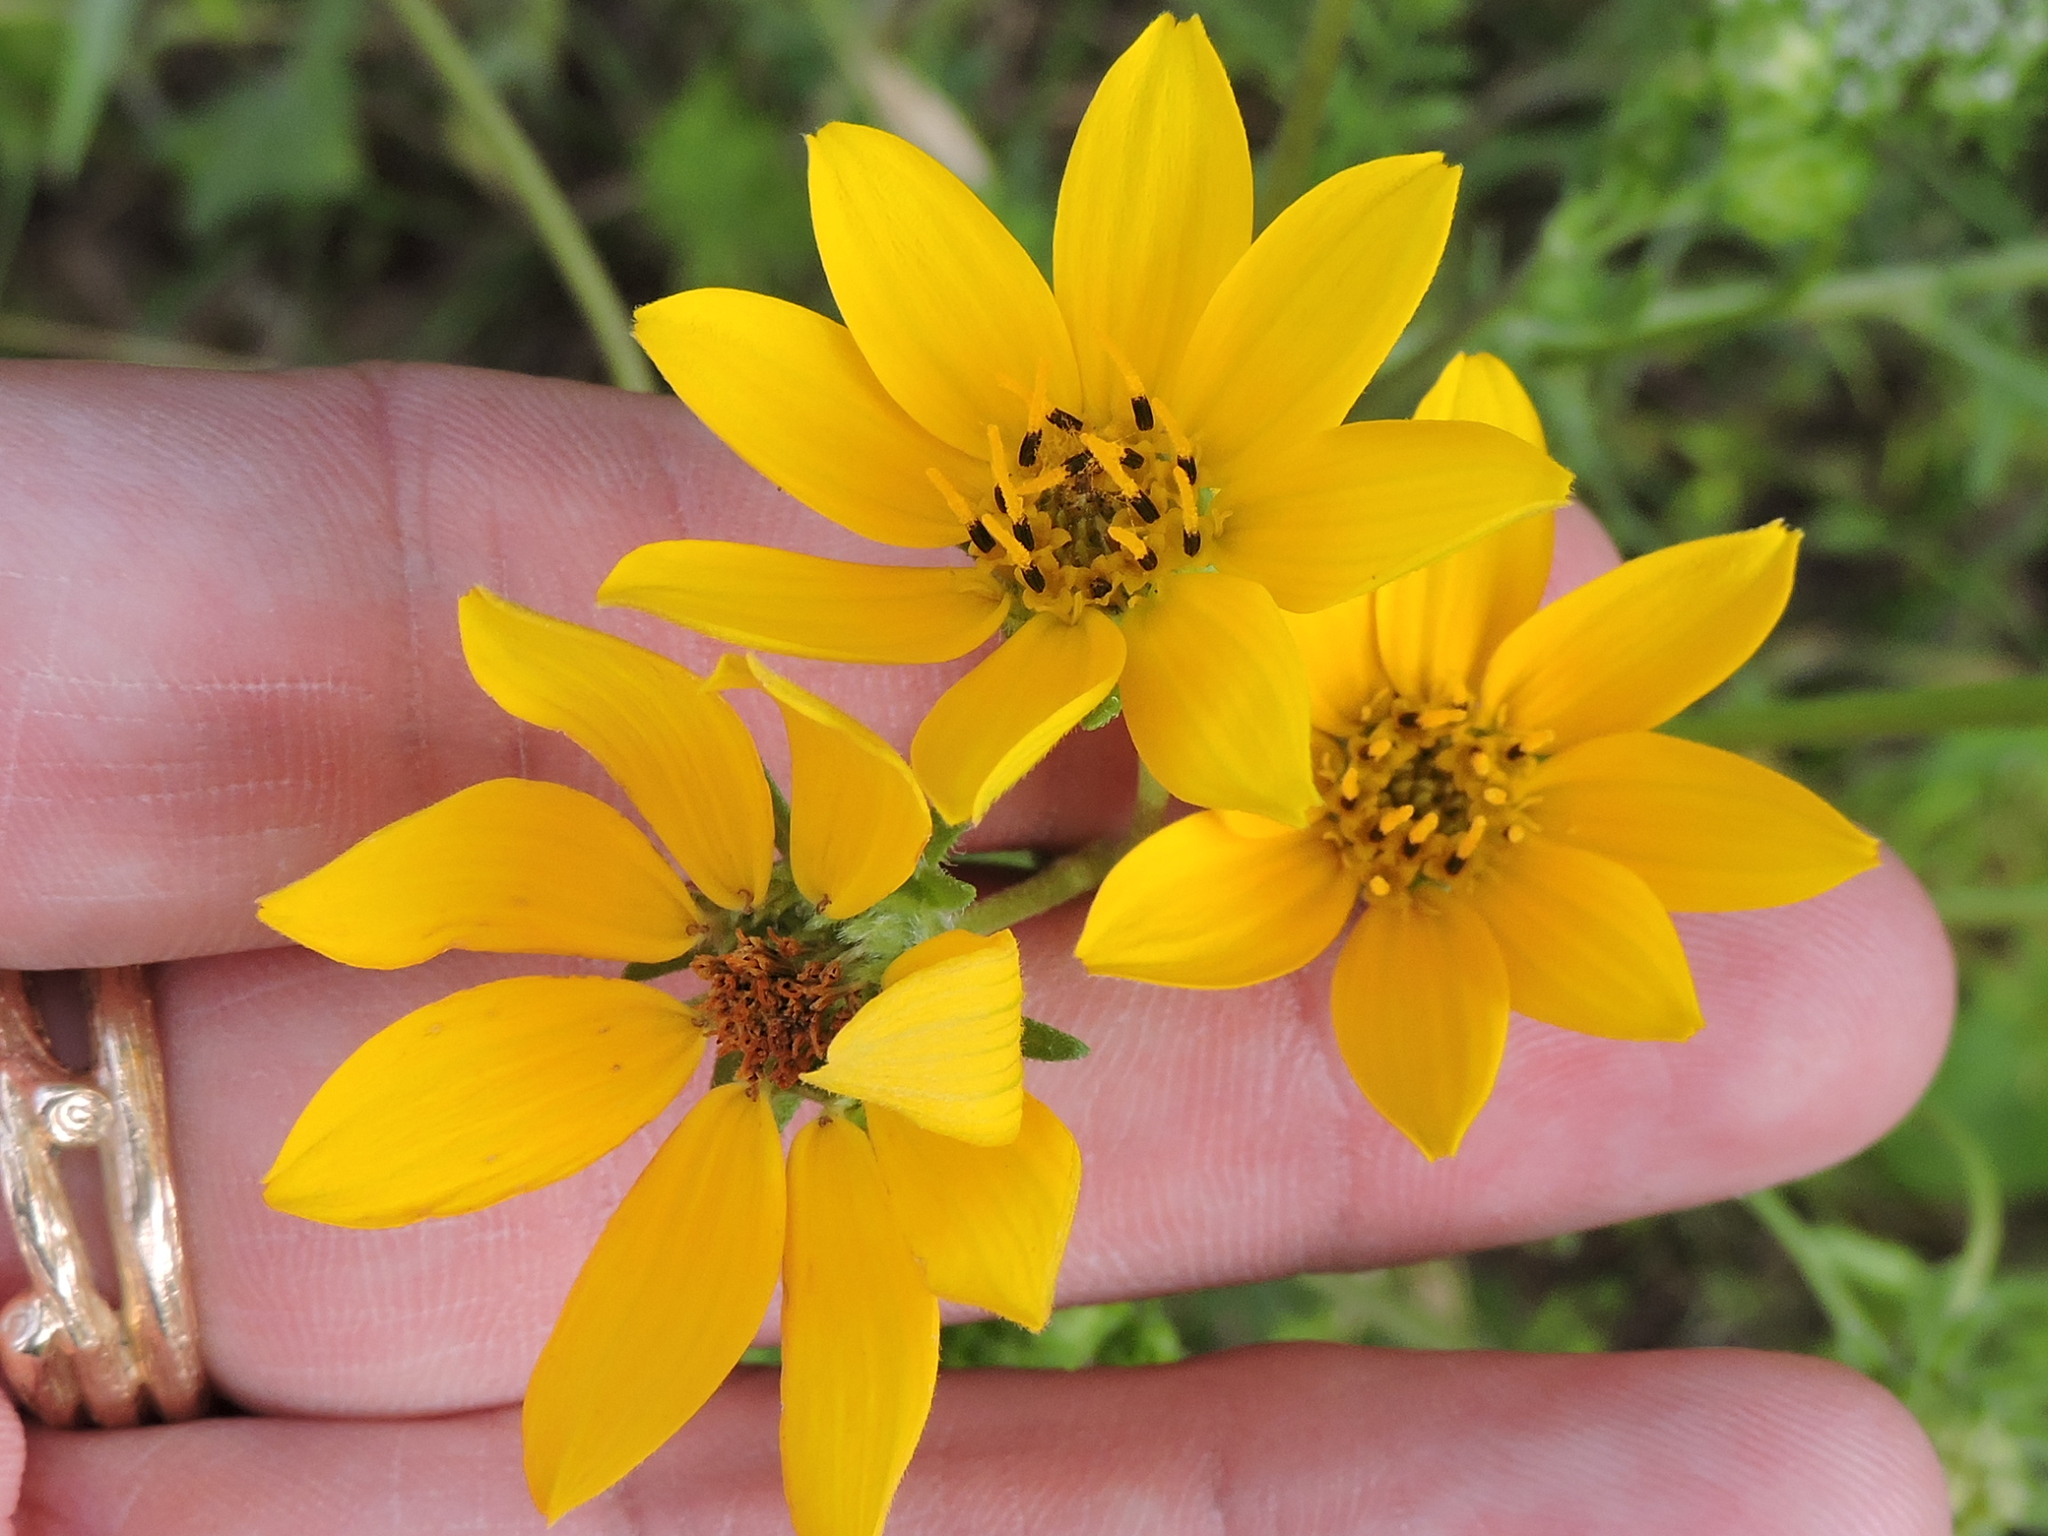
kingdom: Plantae
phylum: Tracheophyta
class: Magnoliopsida
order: Asterales
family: Asteraceae
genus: Engelmannia
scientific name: Engelmannia peristenia
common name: Engelmann's daisy
